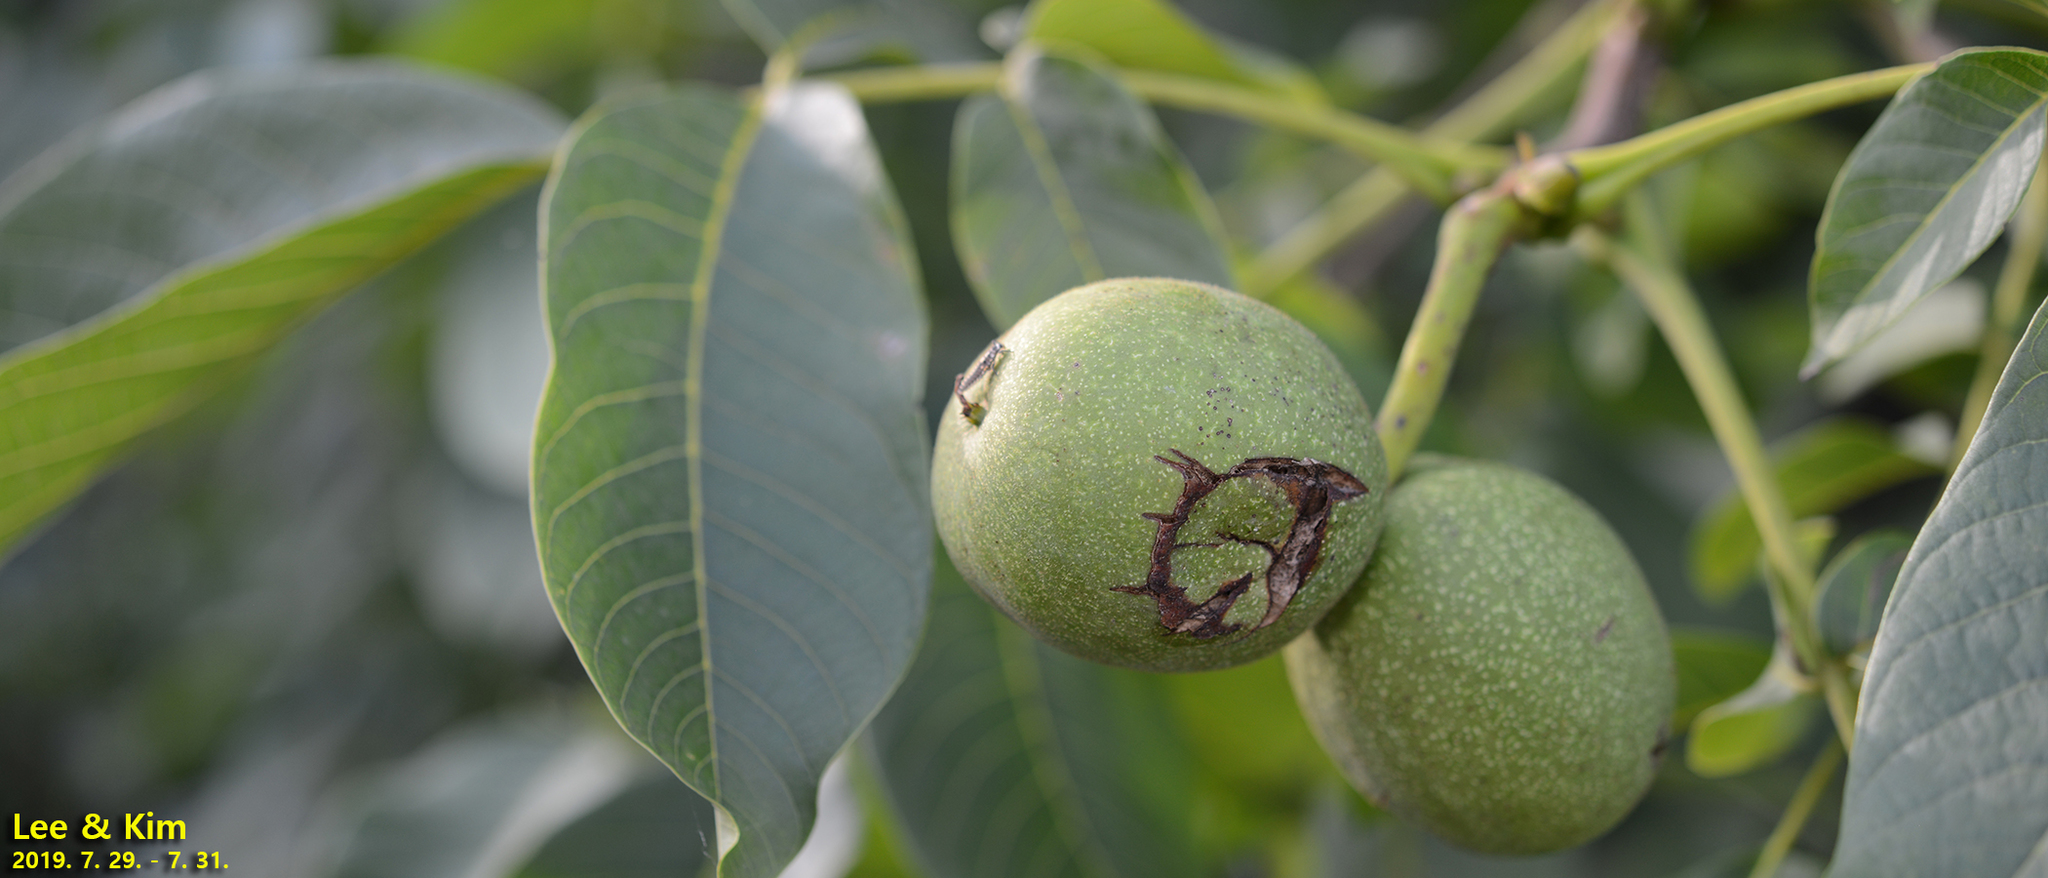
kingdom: Plantae
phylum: Tracheophyta
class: Magnoliopsida
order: Fagales
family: Juglandaceae
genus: Juglans
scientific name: Juglans regia
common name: Walnut
